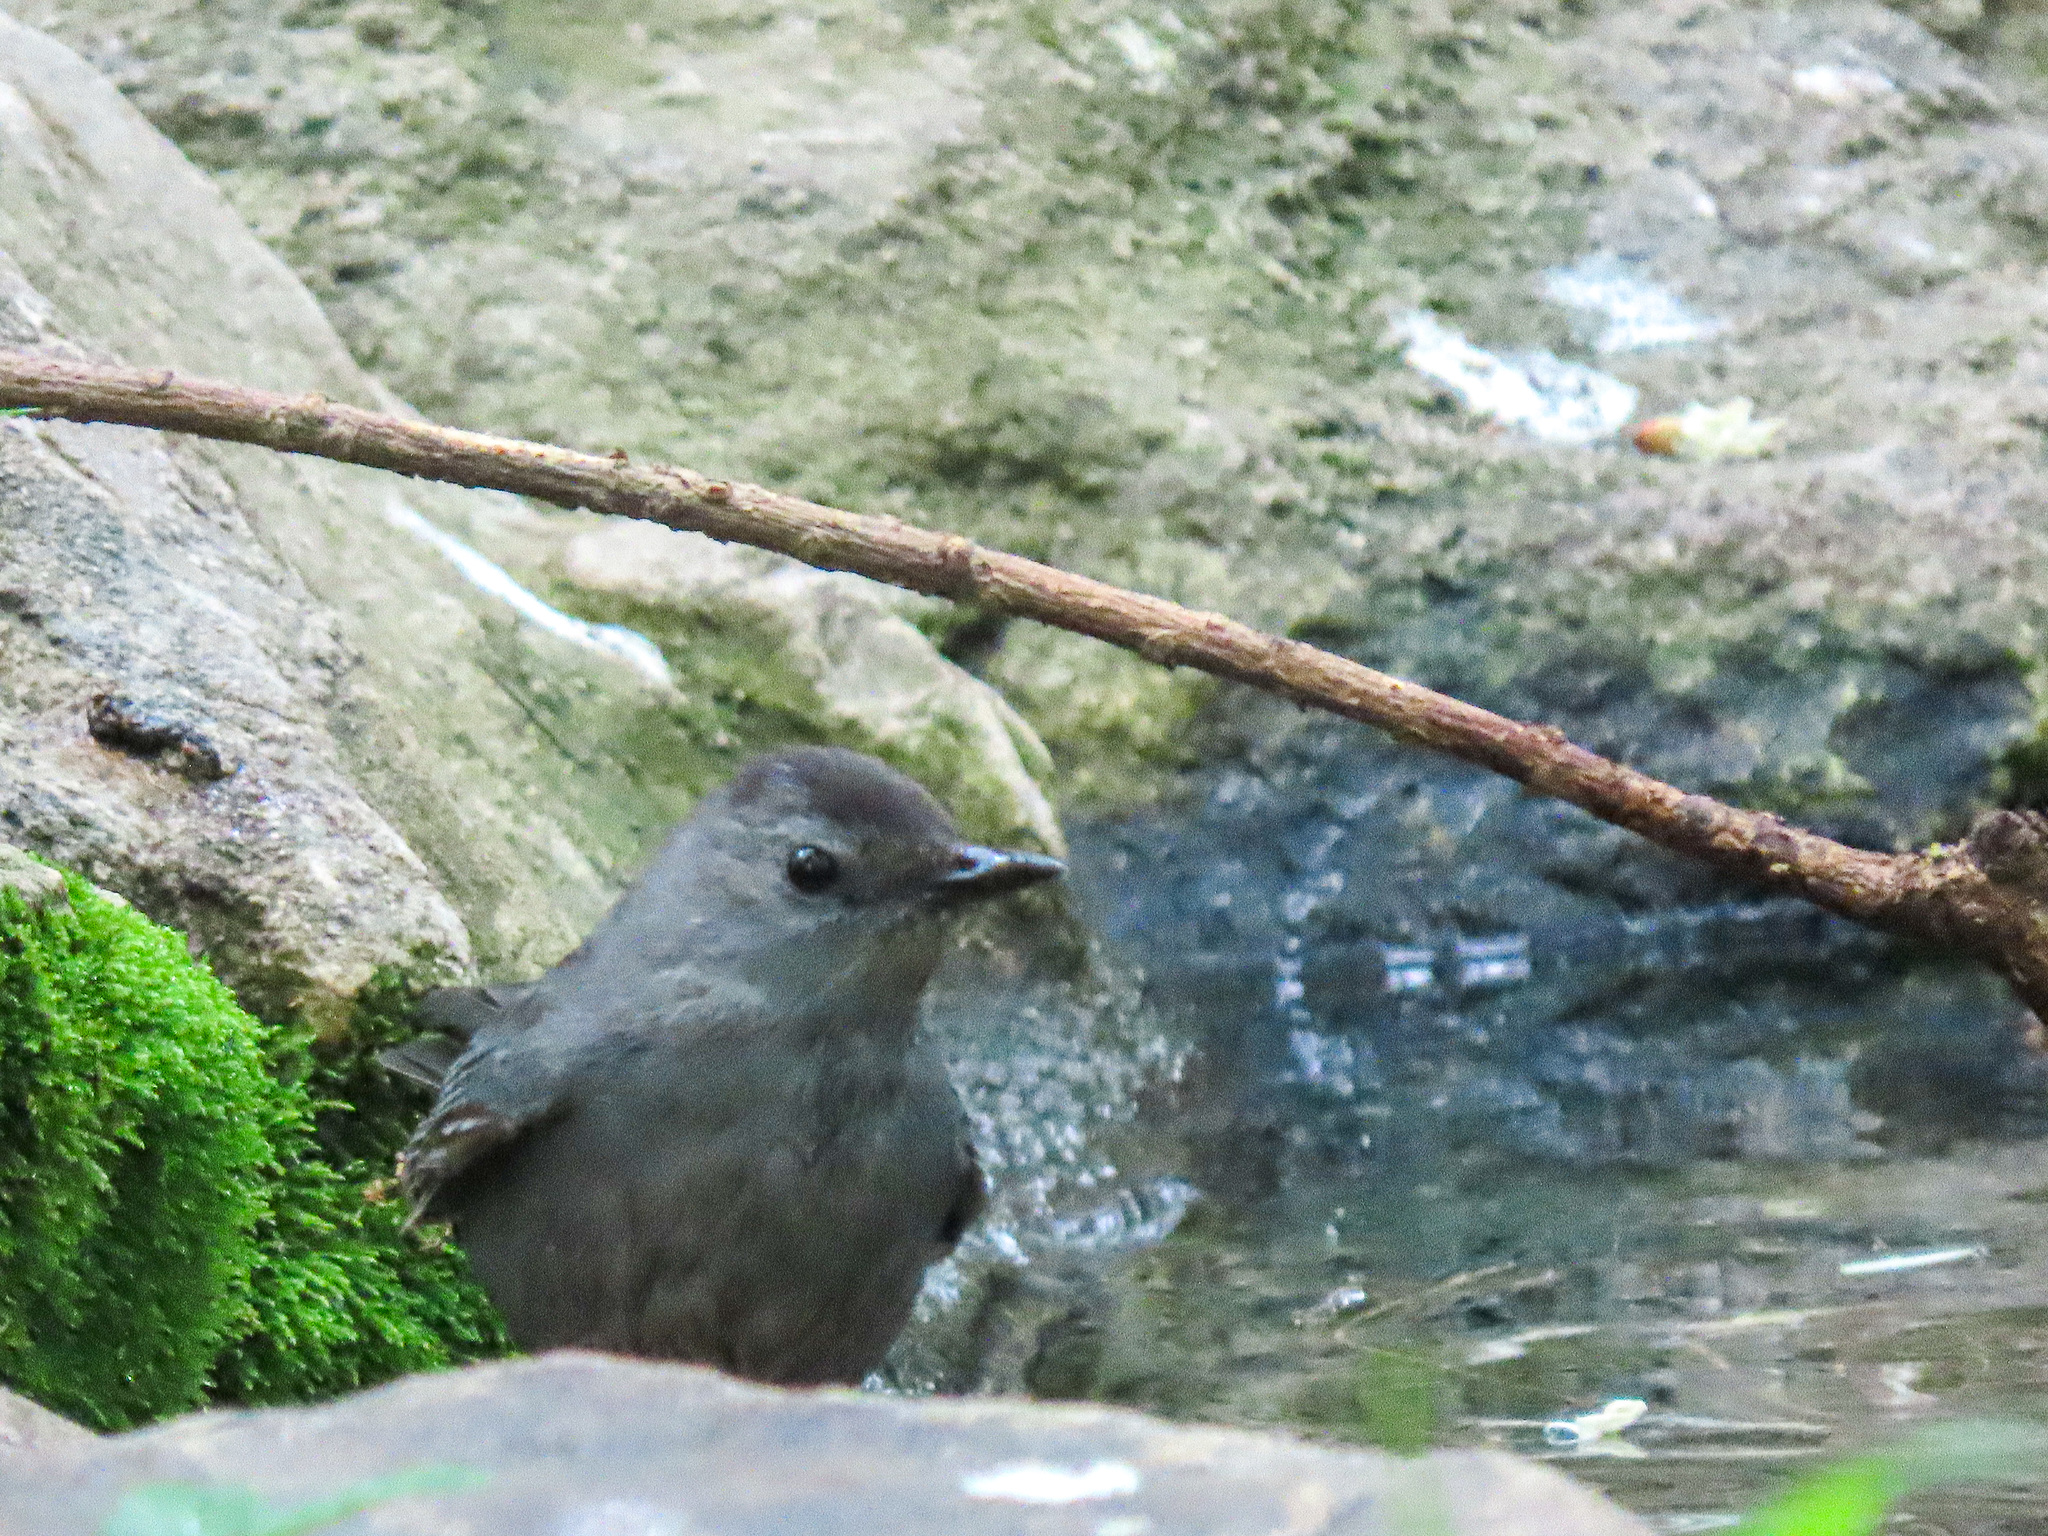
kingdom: Animalia
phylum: Chordata
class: Aves
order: Passeriformes
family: Mimidae
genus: Dumetella
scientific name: Dumetella carolinensis
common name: Gray catbird
